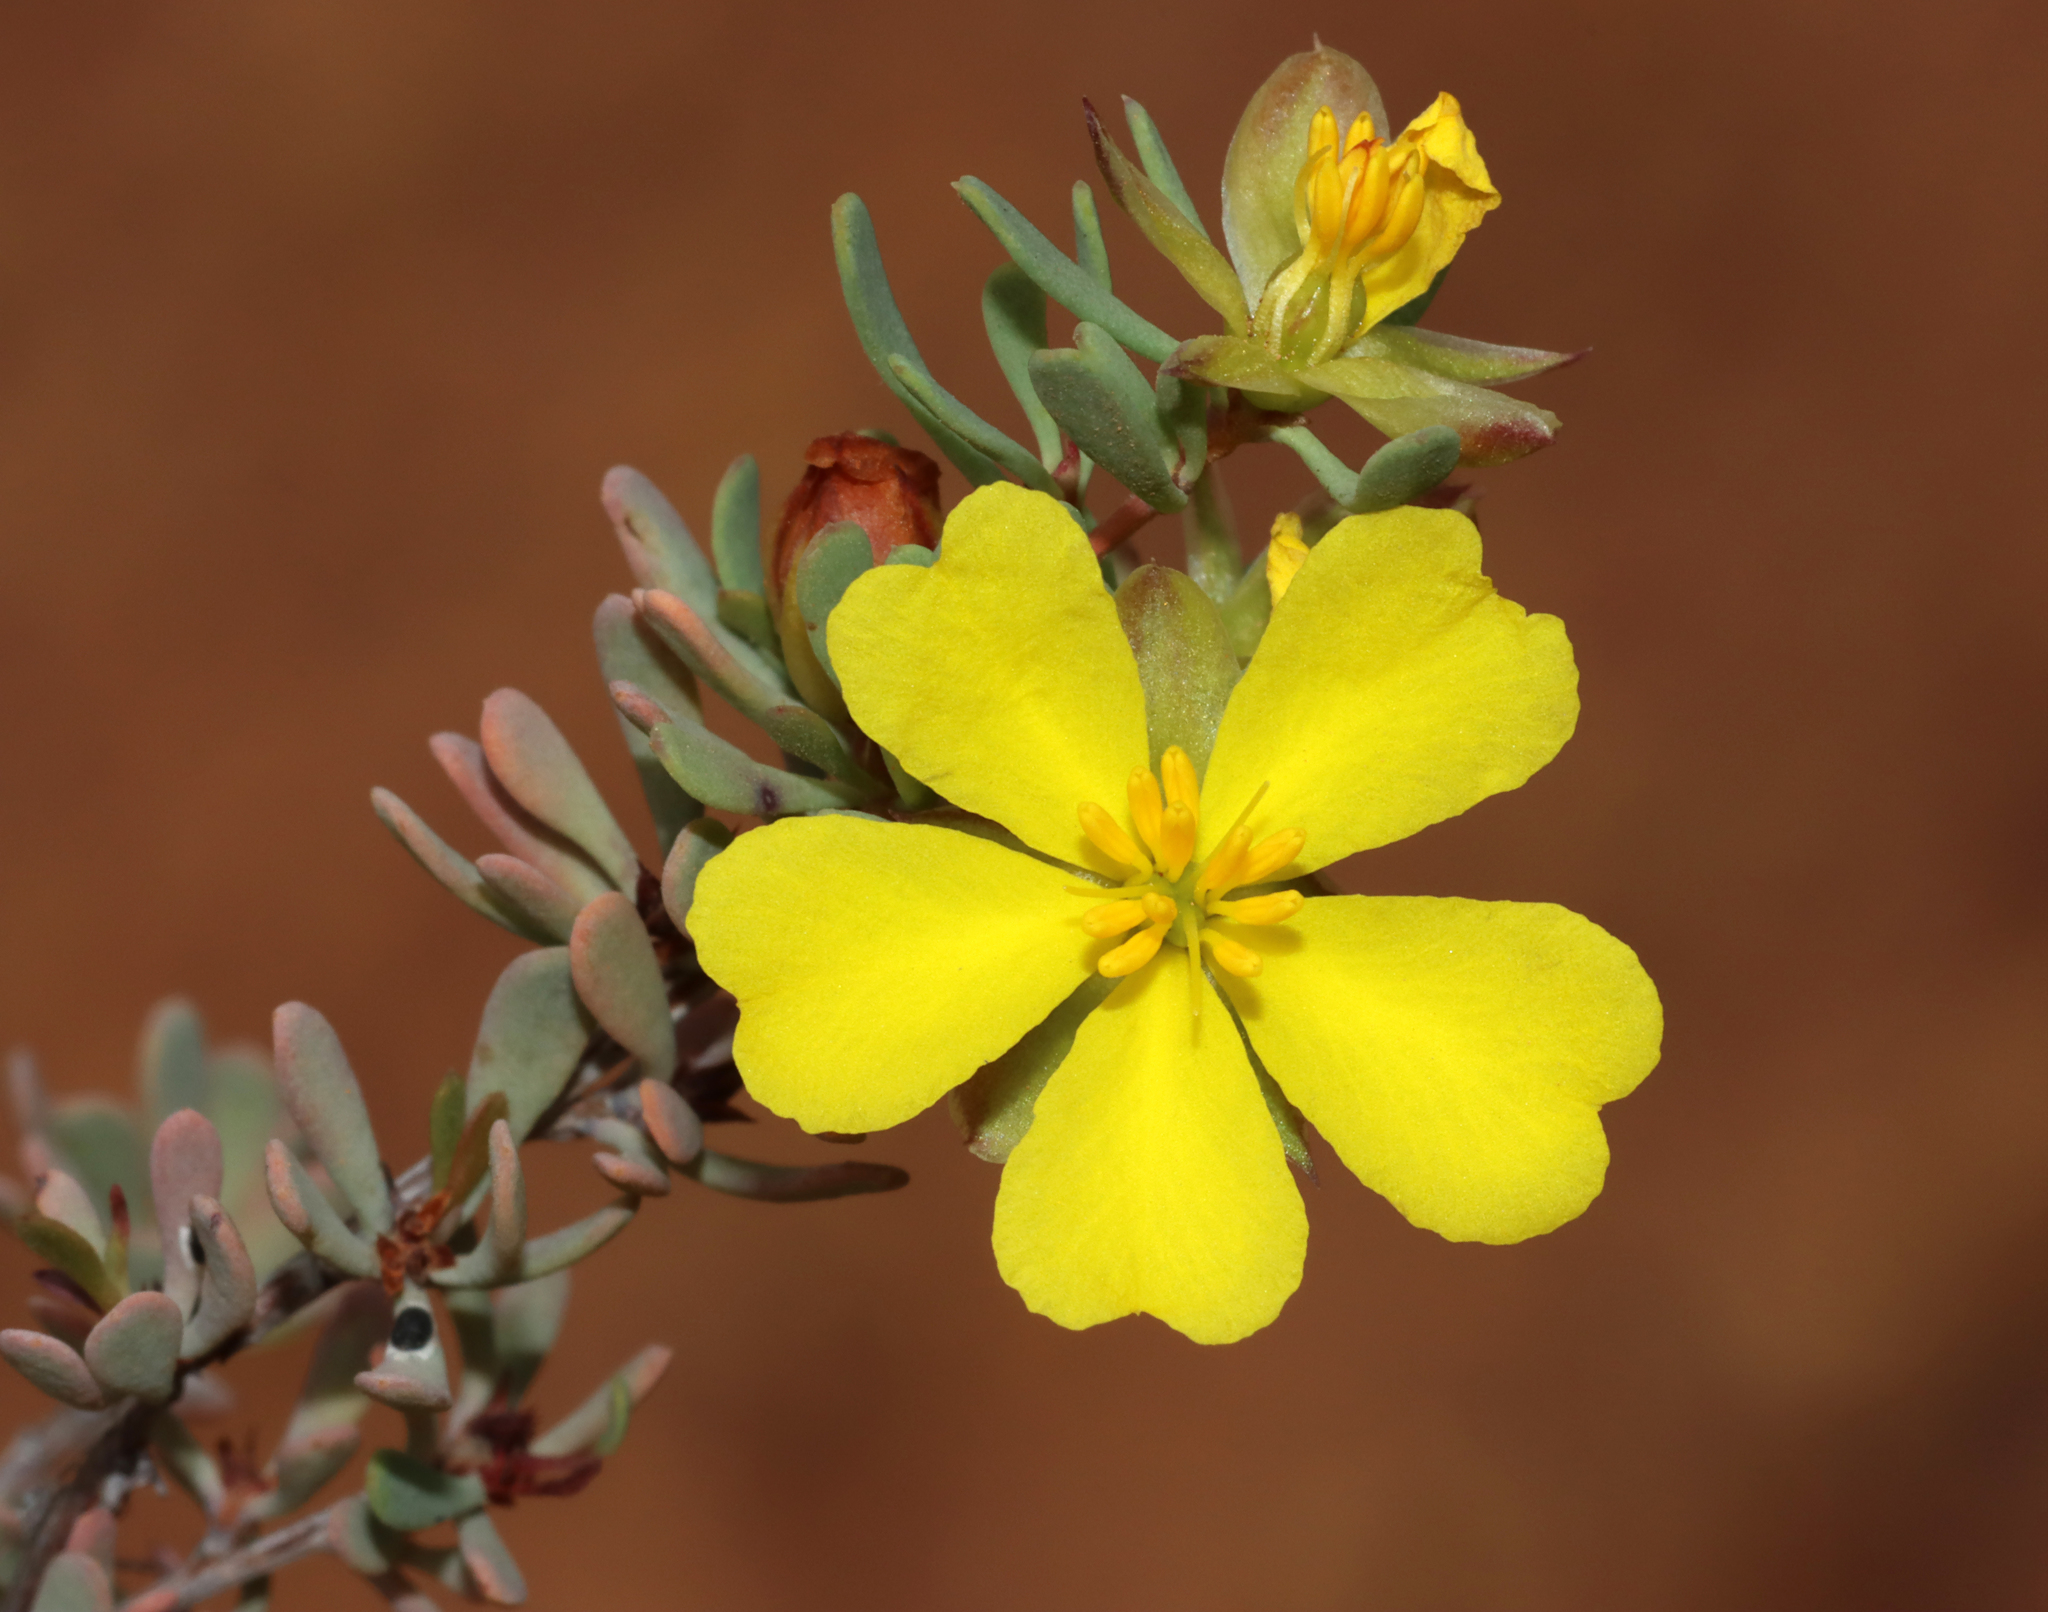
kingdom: Plantae
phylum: Tracheophyta
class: Magnoliopsida
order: Dilleniales
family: Dilleniaceae
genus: Hibbertia
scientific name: Hibbertia
